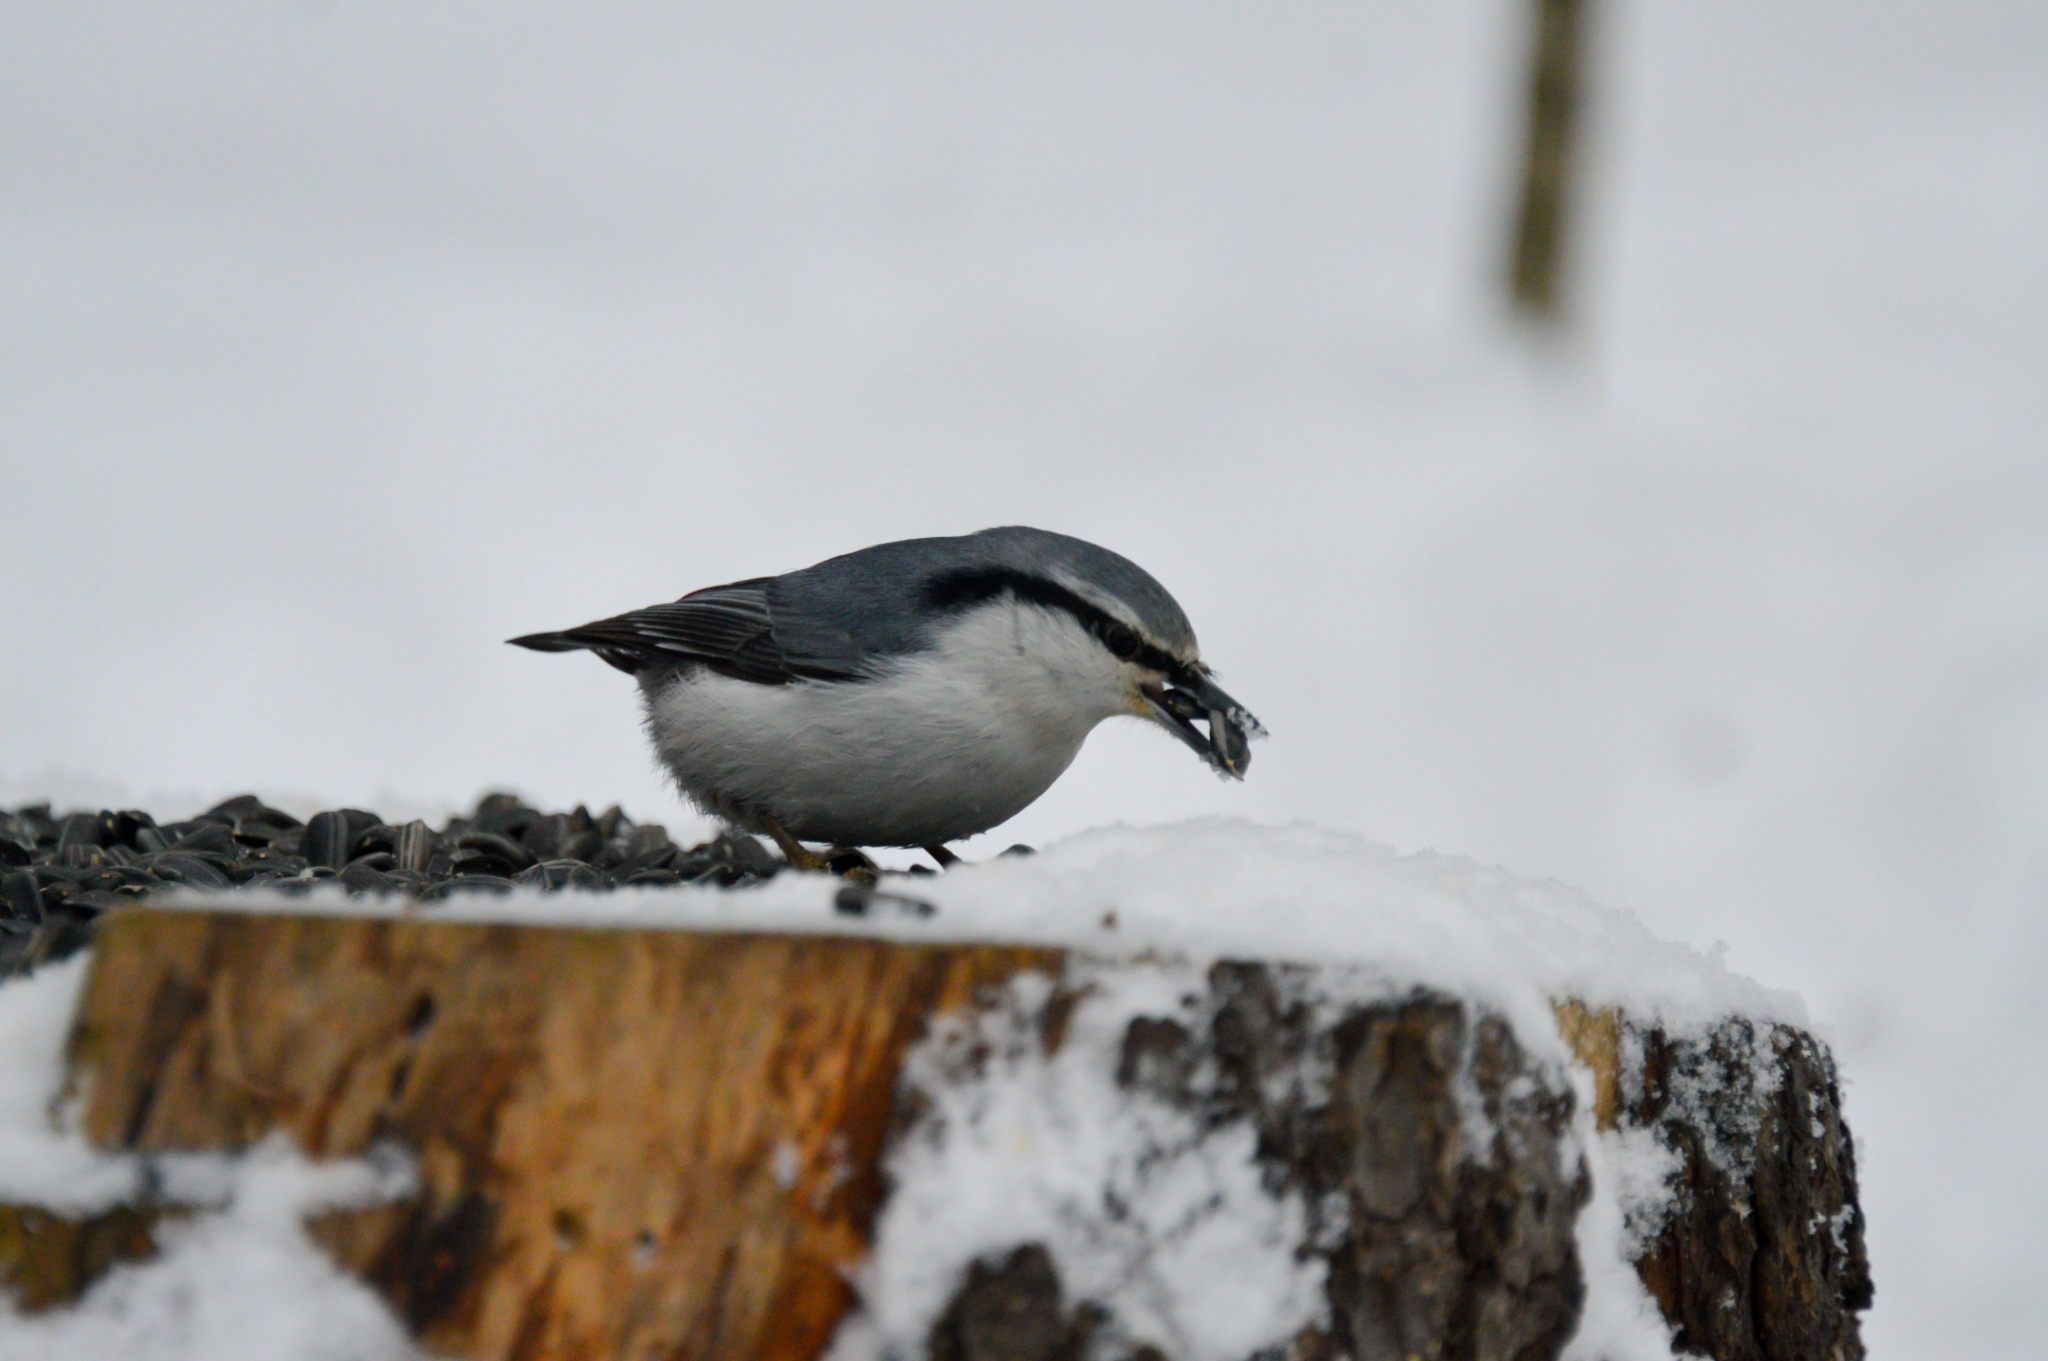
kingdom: Animalia
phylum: Chordata
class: Aves
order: Passeriformes
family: Sittidae
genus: Sitta
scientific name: Sitta europaea
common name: Eurasian nuthatch
